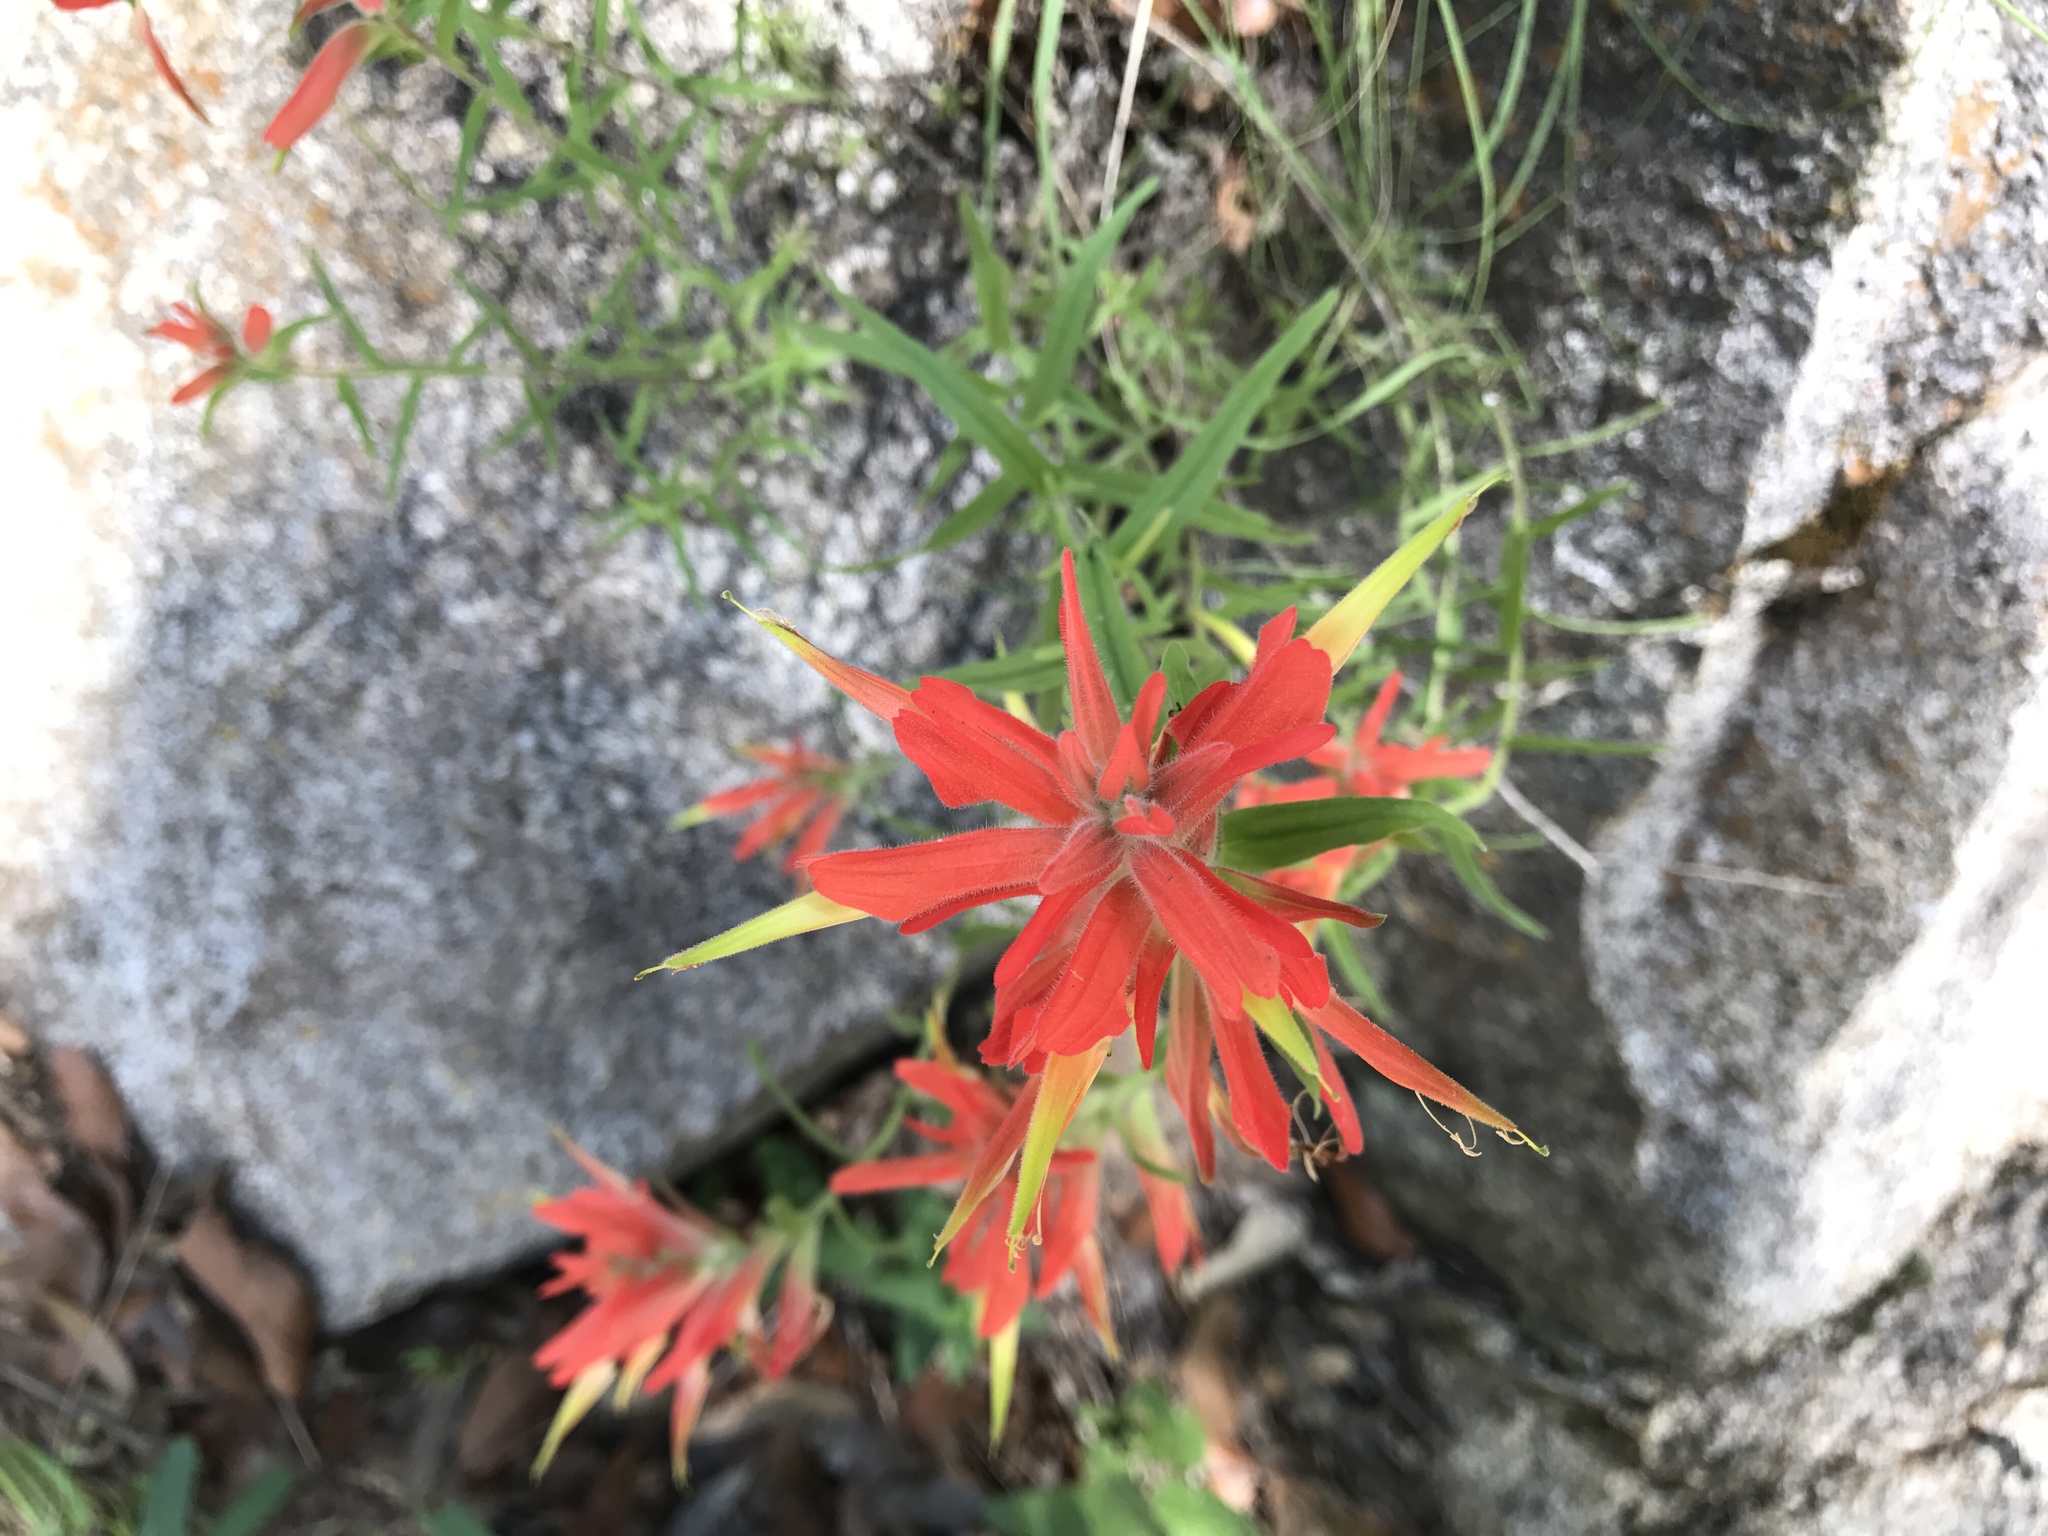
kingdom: Plantae
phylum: Tracheophyta
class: Magnoliopsida
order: Lamiales
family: Orobanchaceae
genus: Castilleja
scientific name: Castilleja tenuiflora
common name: Santa catalina indian paintbrush
